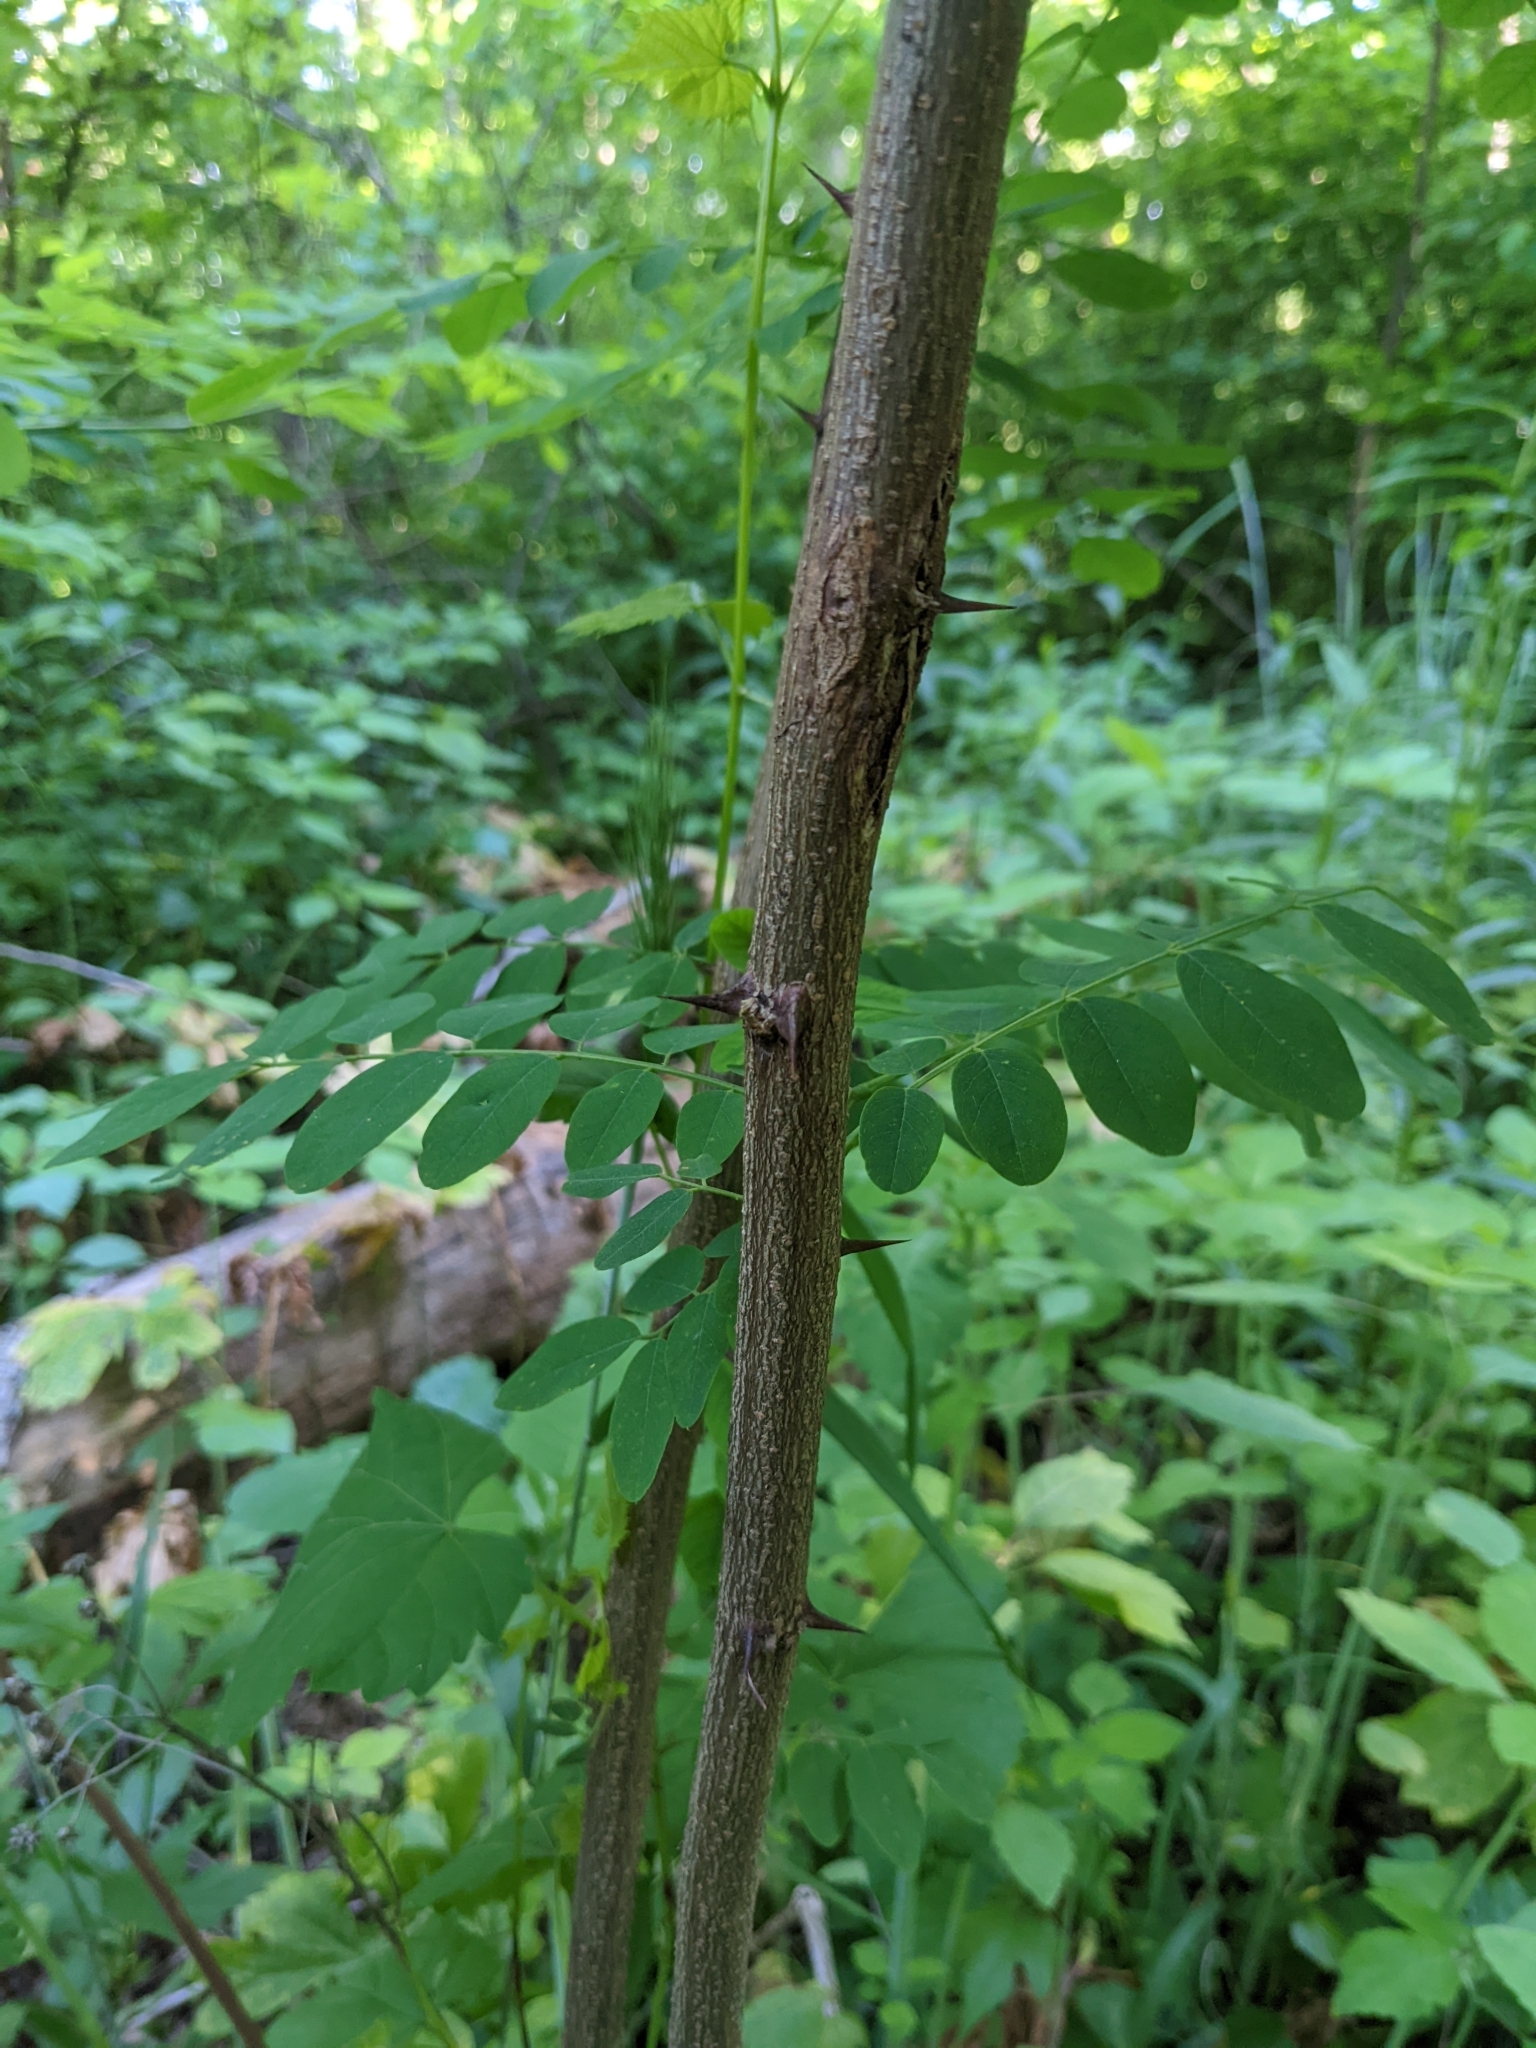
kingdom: Plantae
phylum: Tracheophyta
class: Magnoliopsida
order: Fabales
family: Fabaceae
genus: Robinia
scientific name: Robinia pseudoacacia
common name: Black locust
